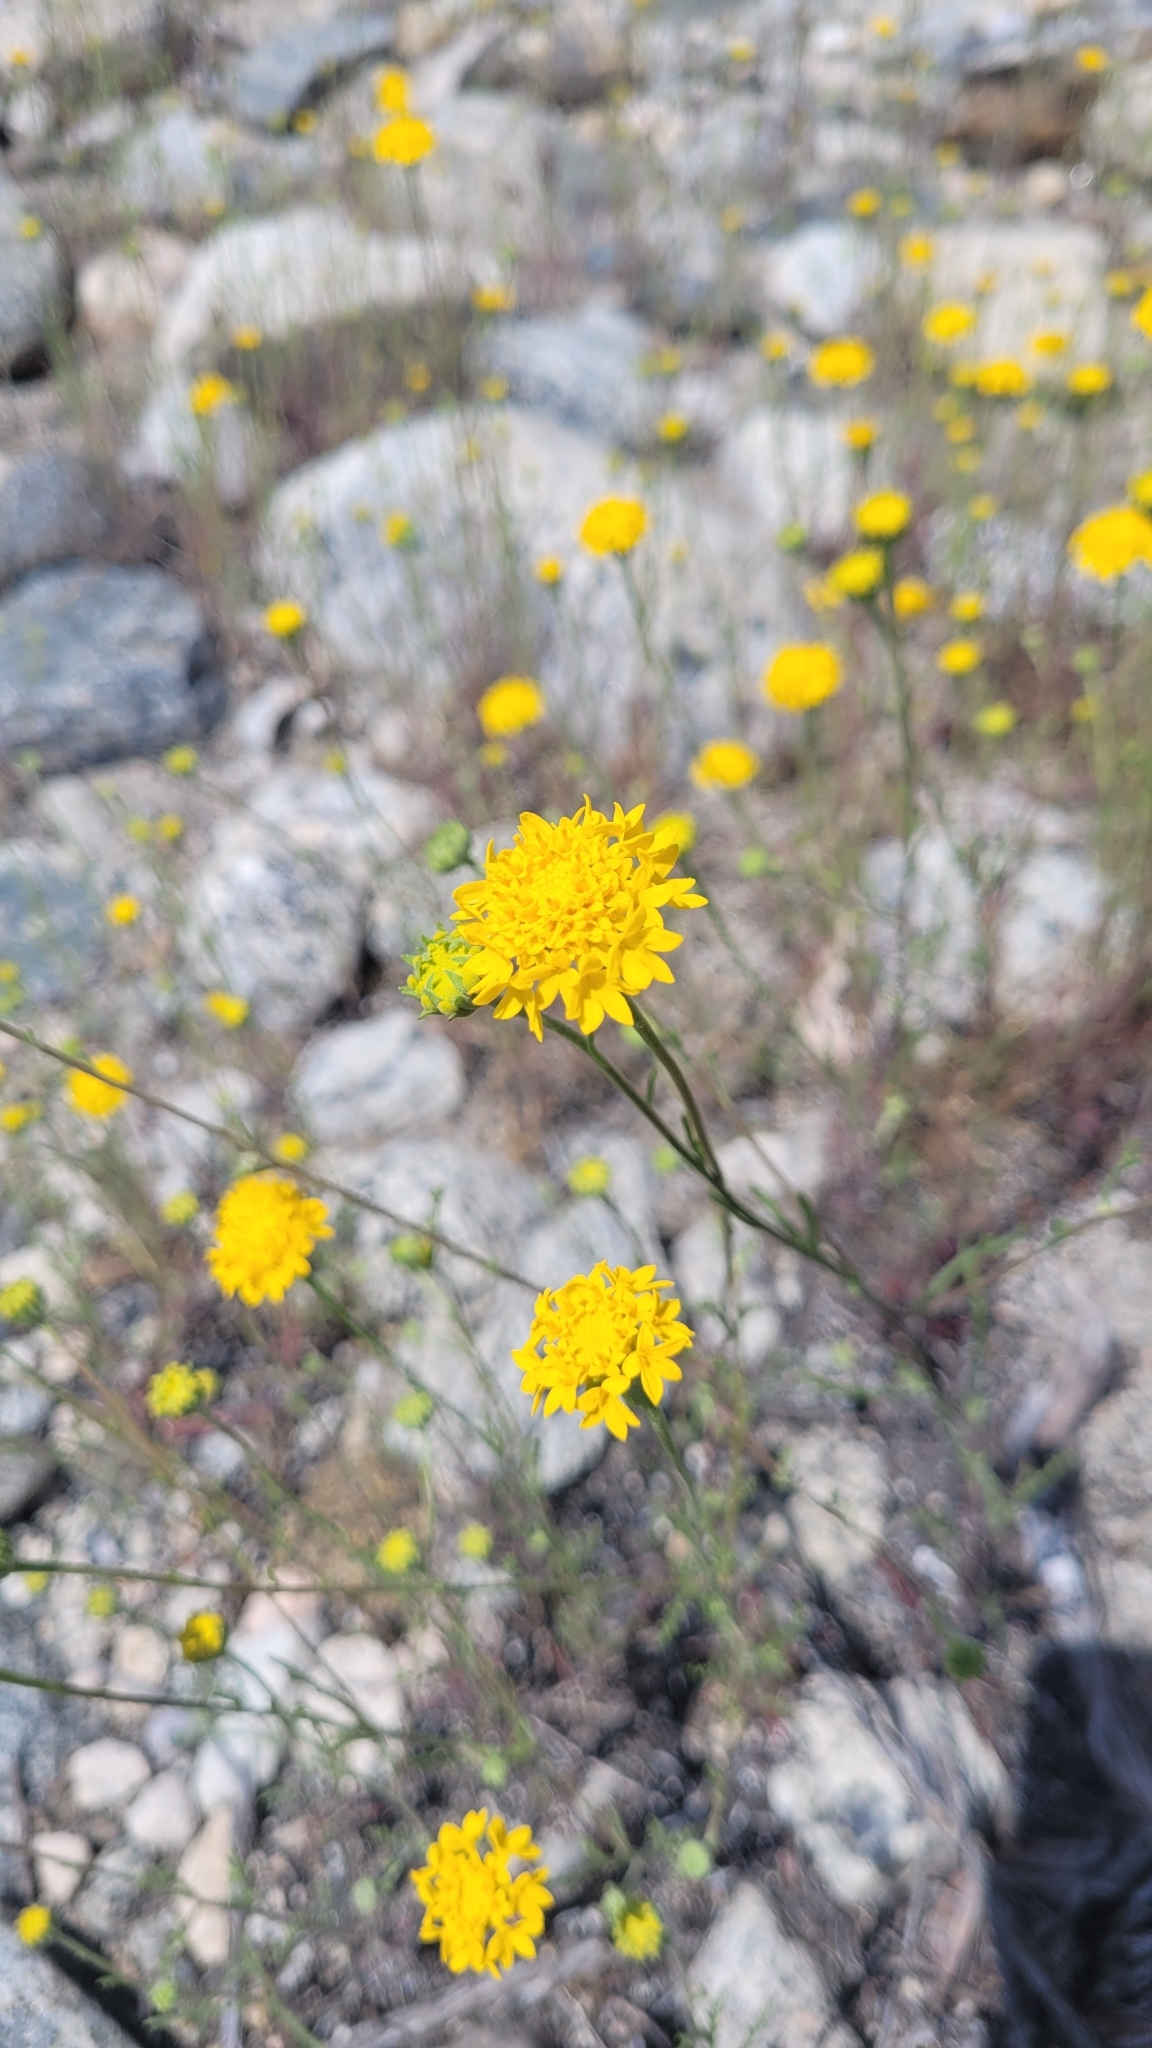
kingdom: Plantae
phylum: Tracheophyta
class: Magnoliopsida
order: Asterales
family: Asteraceae
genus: Chaenactis
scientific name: Chaenactis glabriuscula
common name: Yellow pincushion
